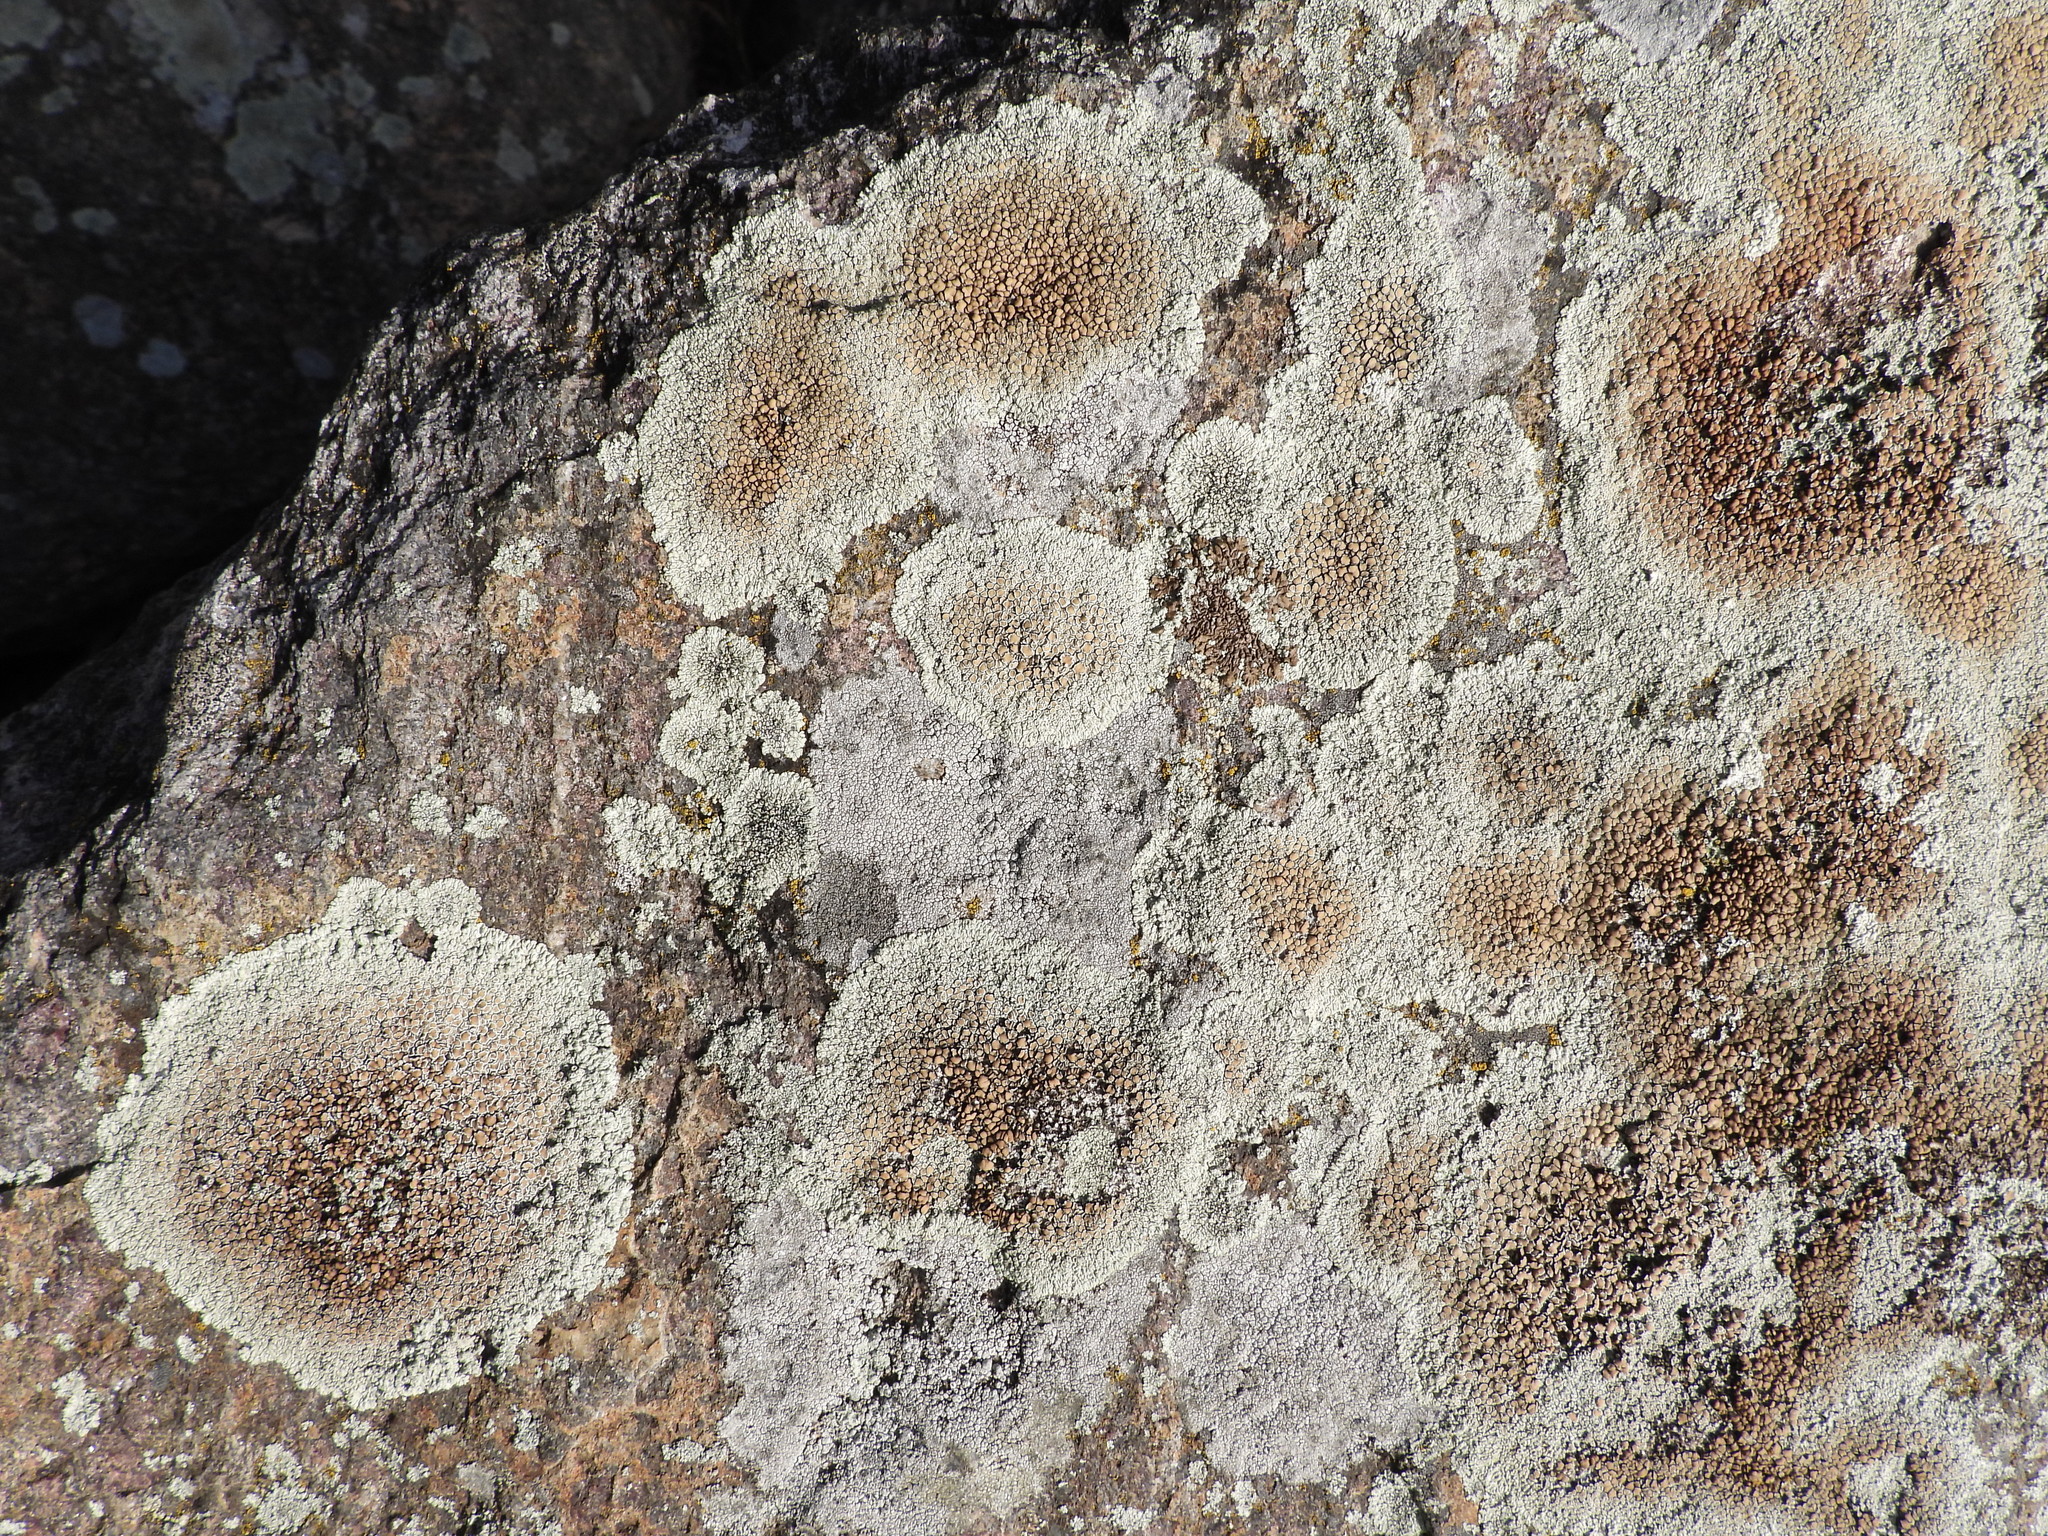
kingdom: Fungi
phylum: Ascomycota
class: Lecanoromycetes
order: Lecanorales
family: Lecanoraceae
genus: Protoparmeliopsis
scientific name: Protoparmeliopsis muralis
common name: Stonewall rim lichen
